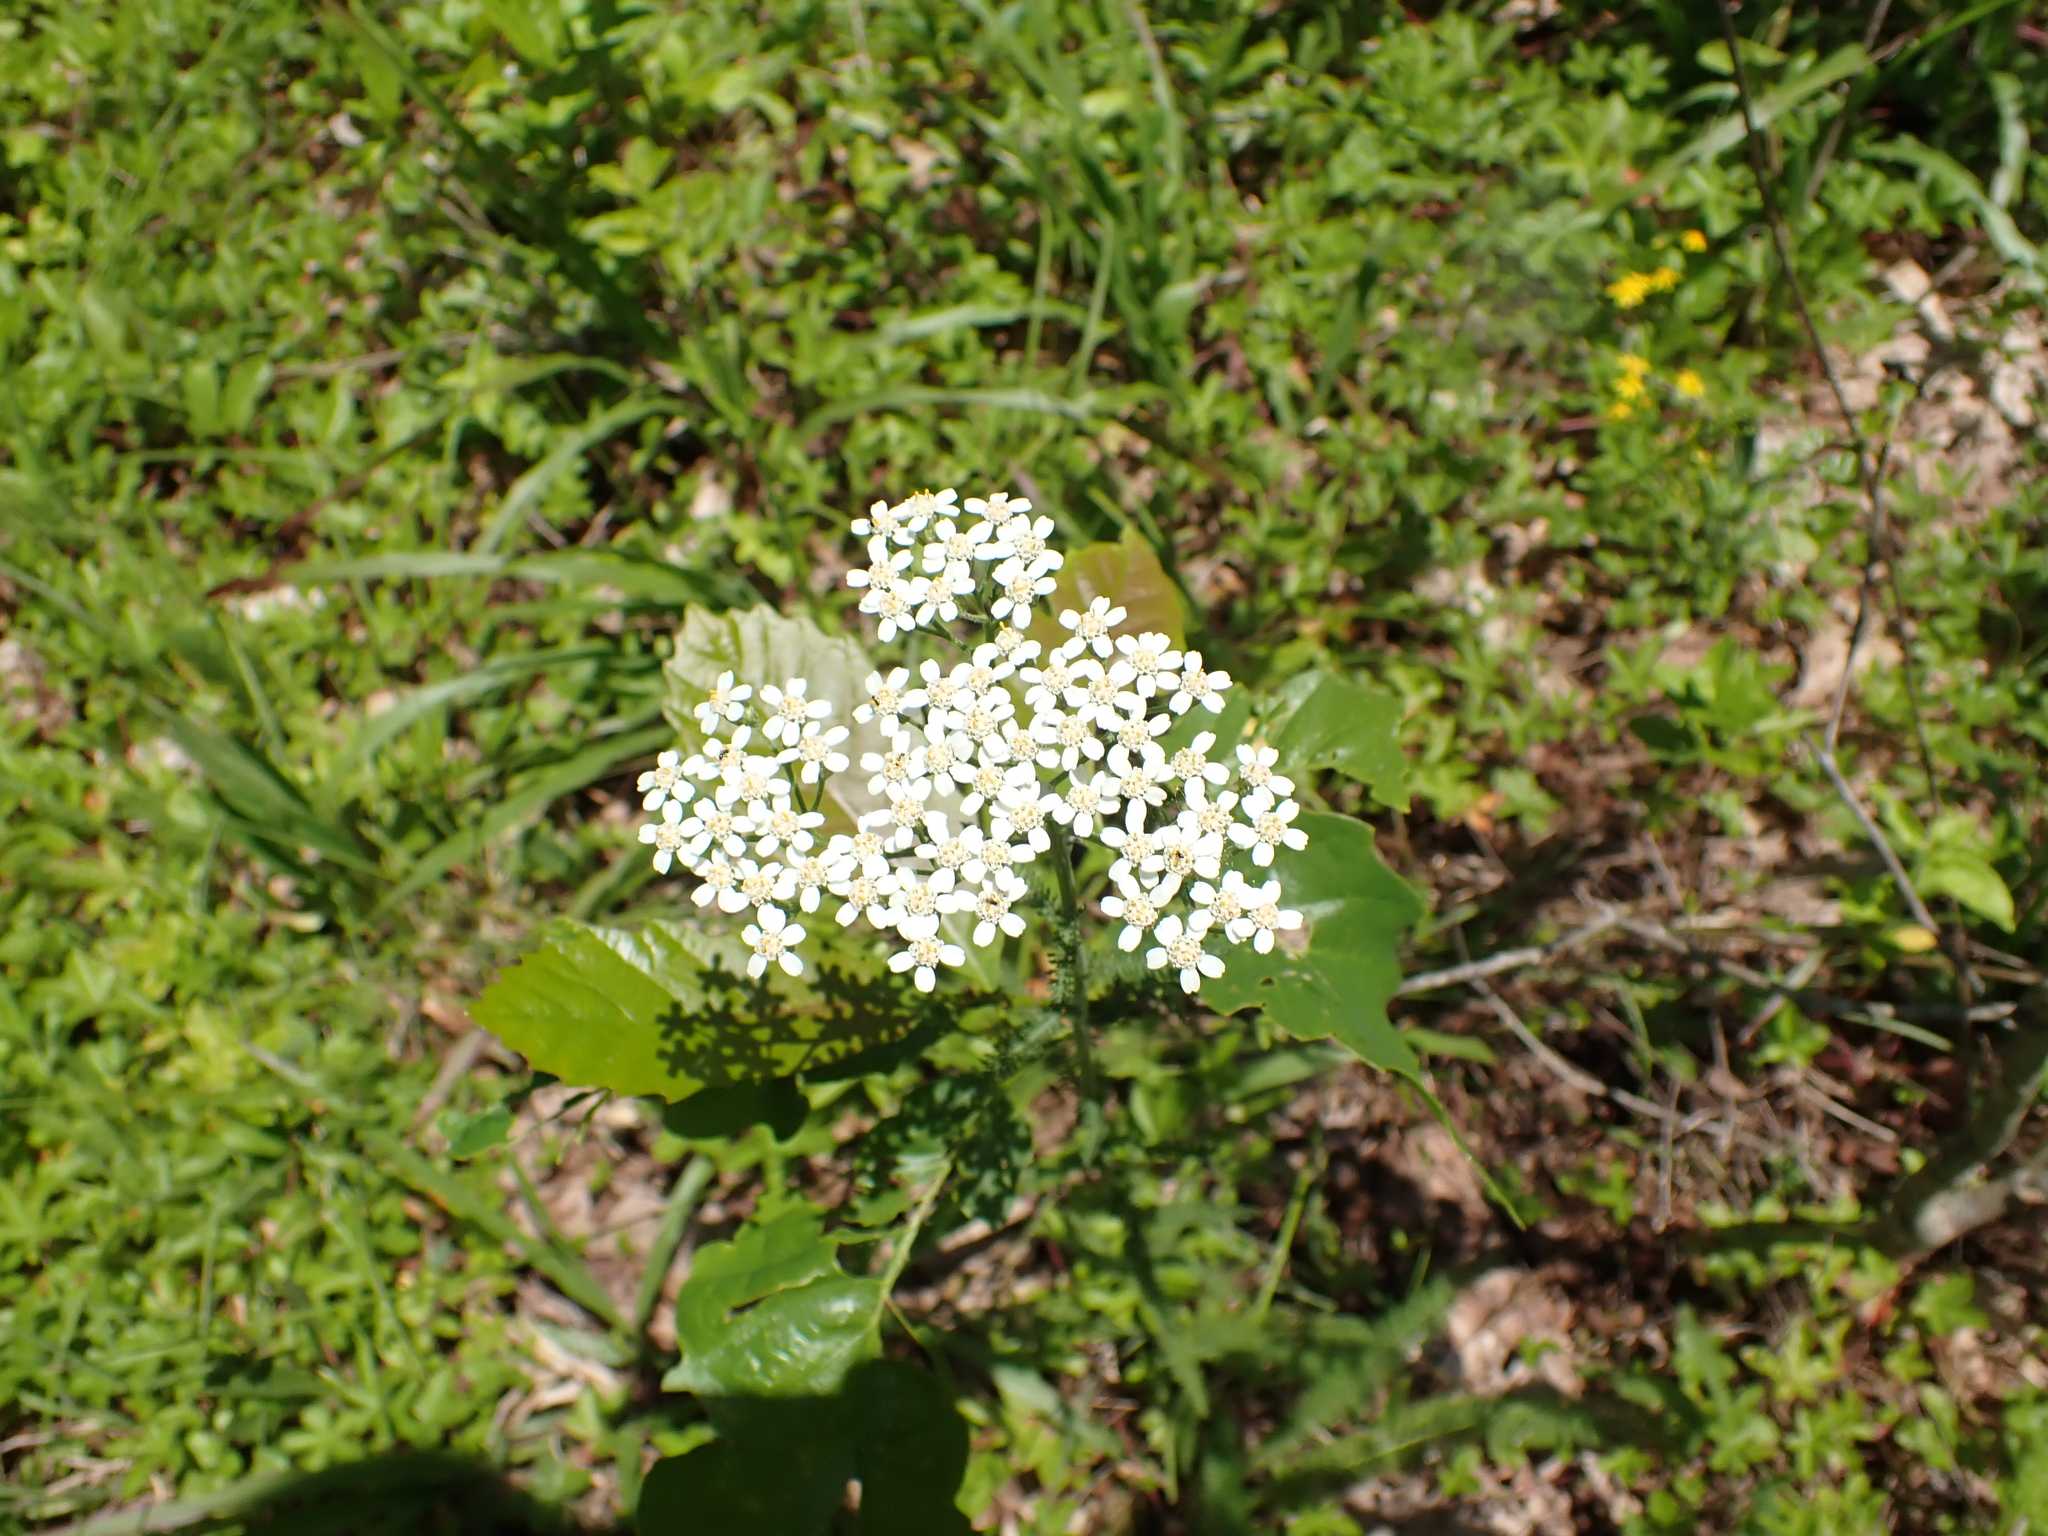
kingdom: Plantae
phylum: Tracheophyta
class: Magnoliopsida
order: Asterales
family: Asteraceae
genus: Achillea
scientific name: Achillea millefolium
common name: Yarrow
